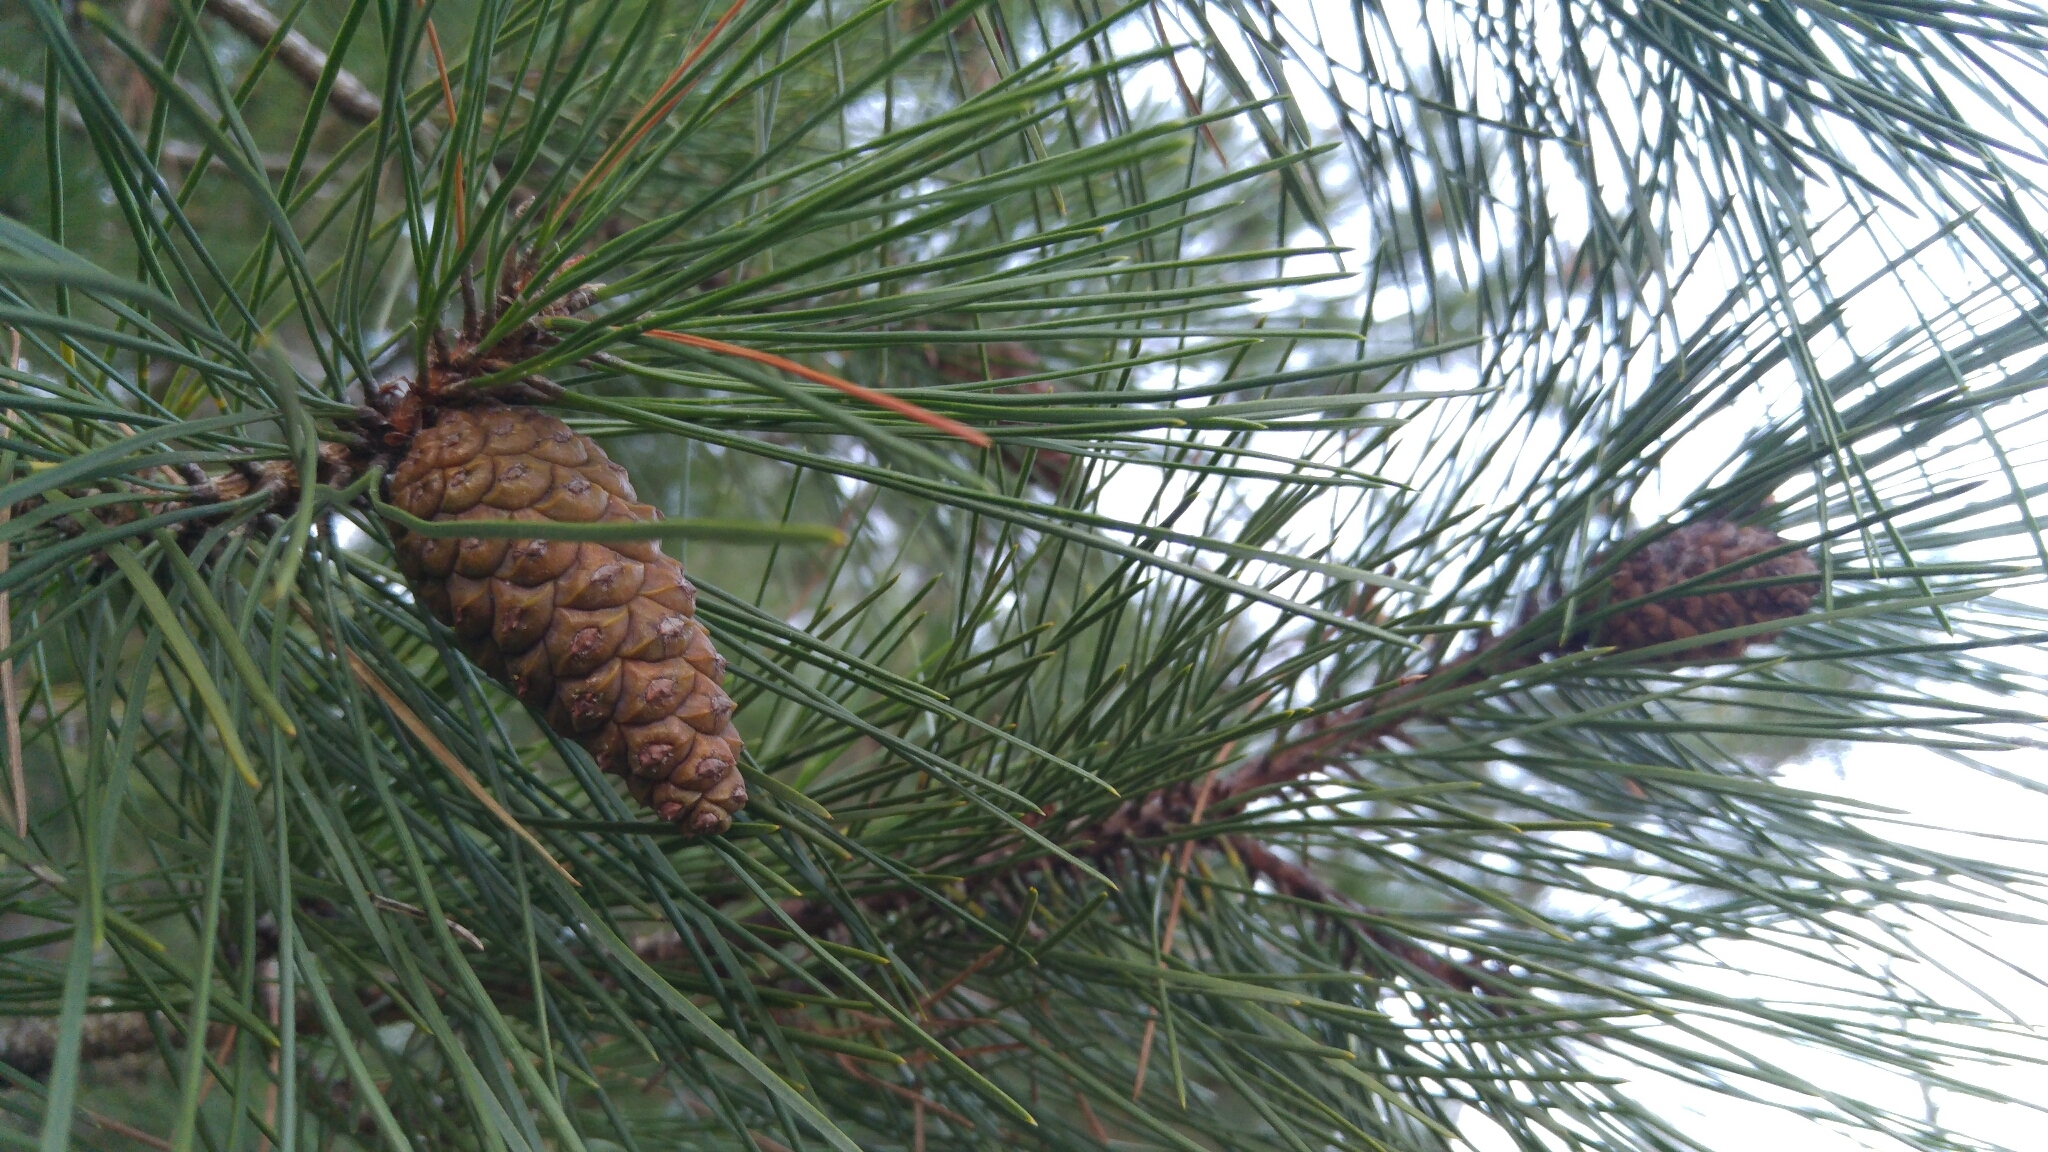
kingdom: Plantae
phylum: Tracheophyta
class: Pinopsida
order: Pinales
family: Pinaceae
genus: Pinus
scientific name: Pinus halepensis
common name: Aleppo pine
